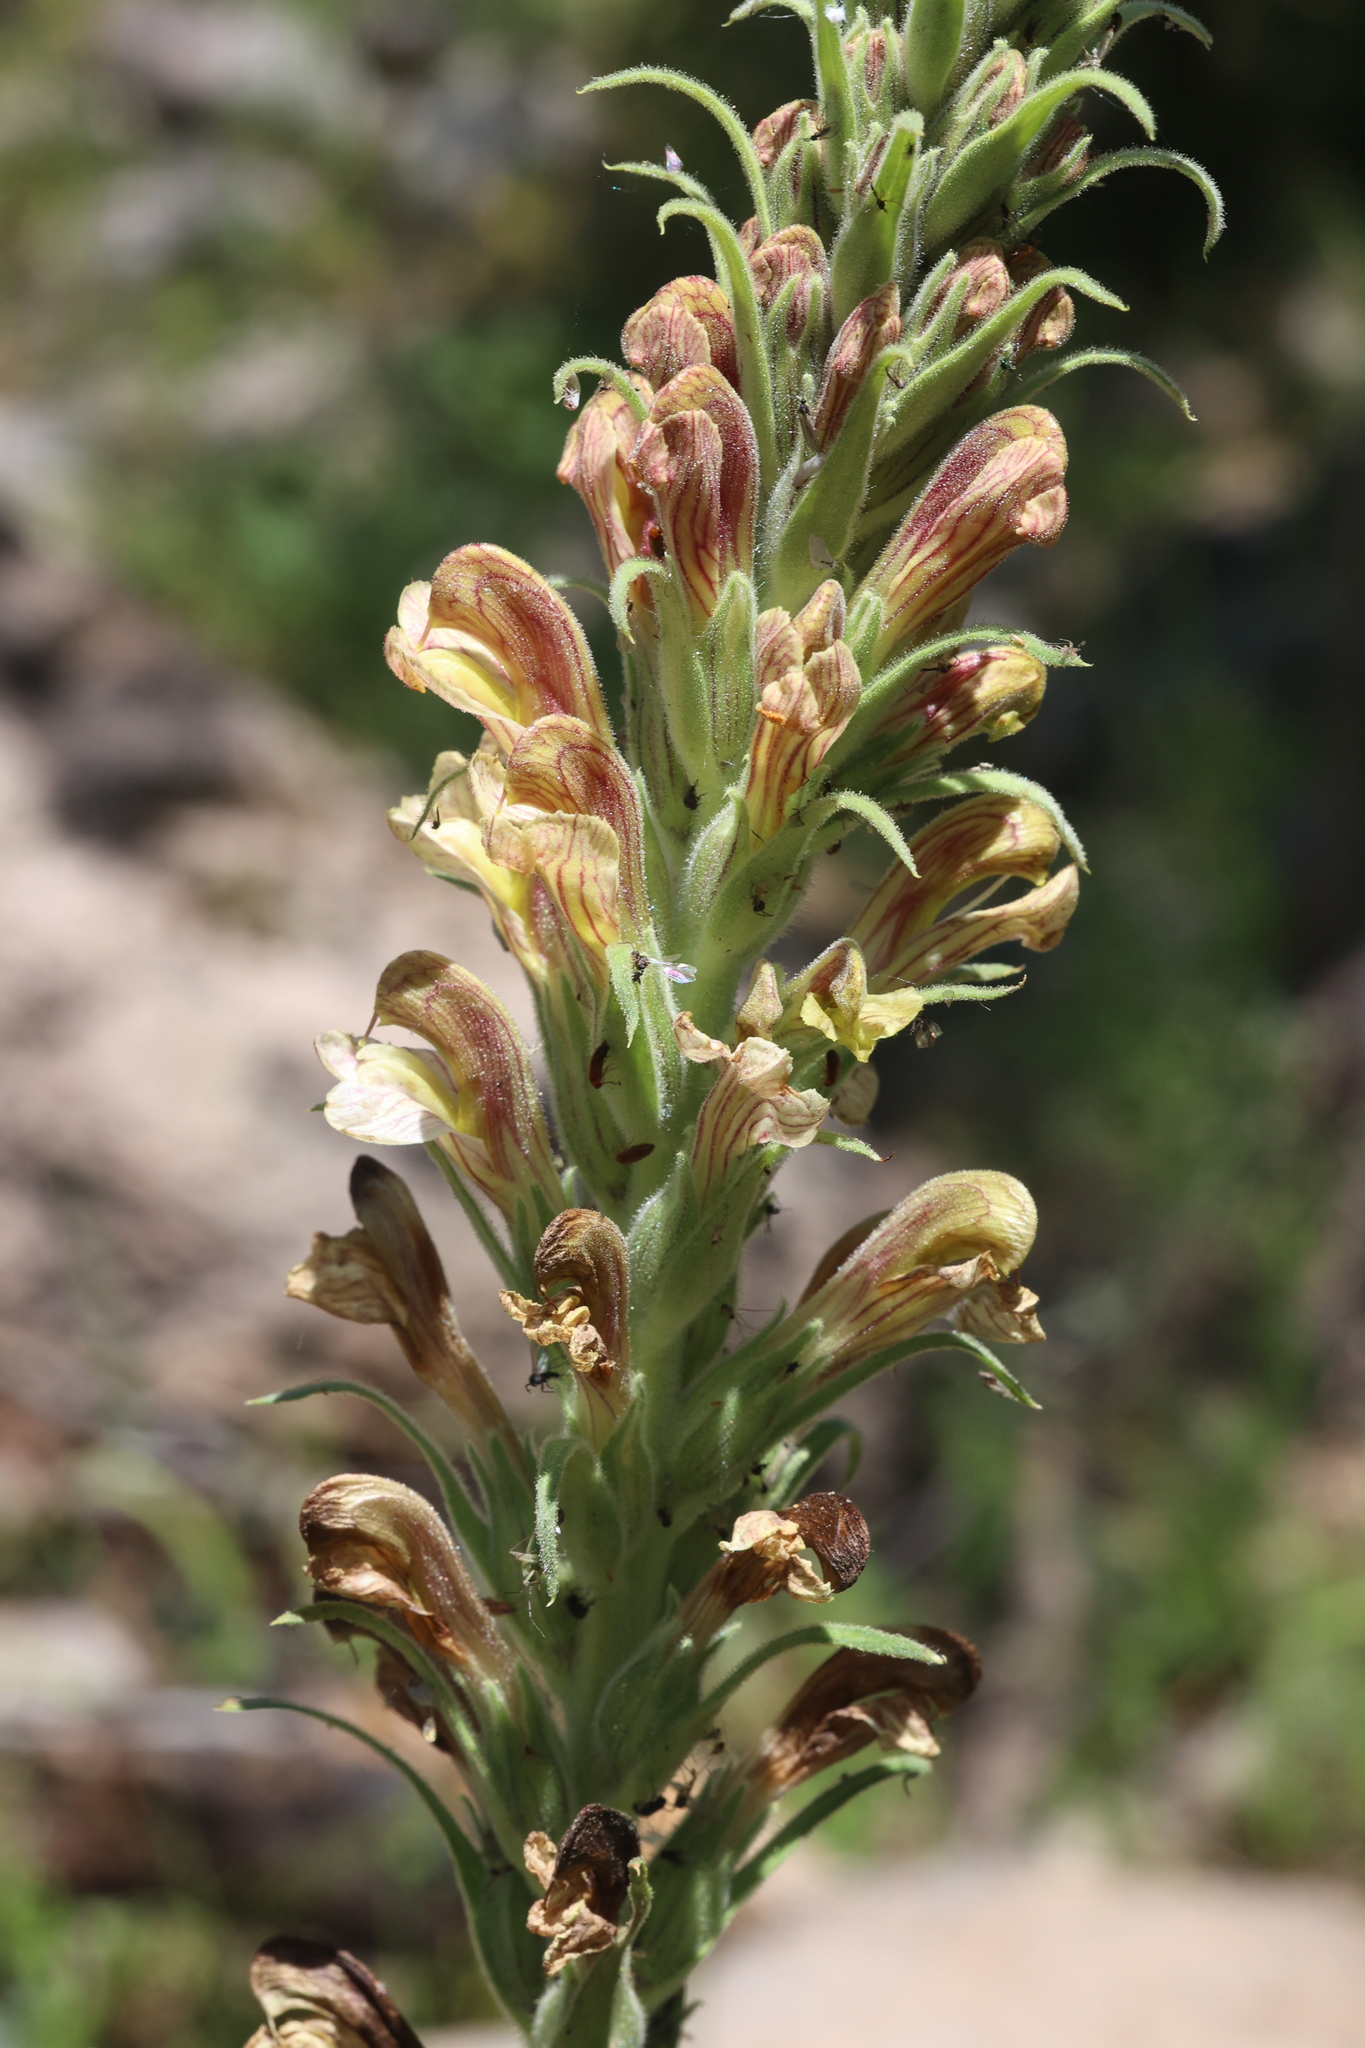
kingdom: Plantae
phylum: Tracheophyta
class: Magnoliopsida
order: Lamiales
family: Orobanchaceae
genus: Pedicularis
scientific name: Pedicularis procera
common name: Gray's lousewort
